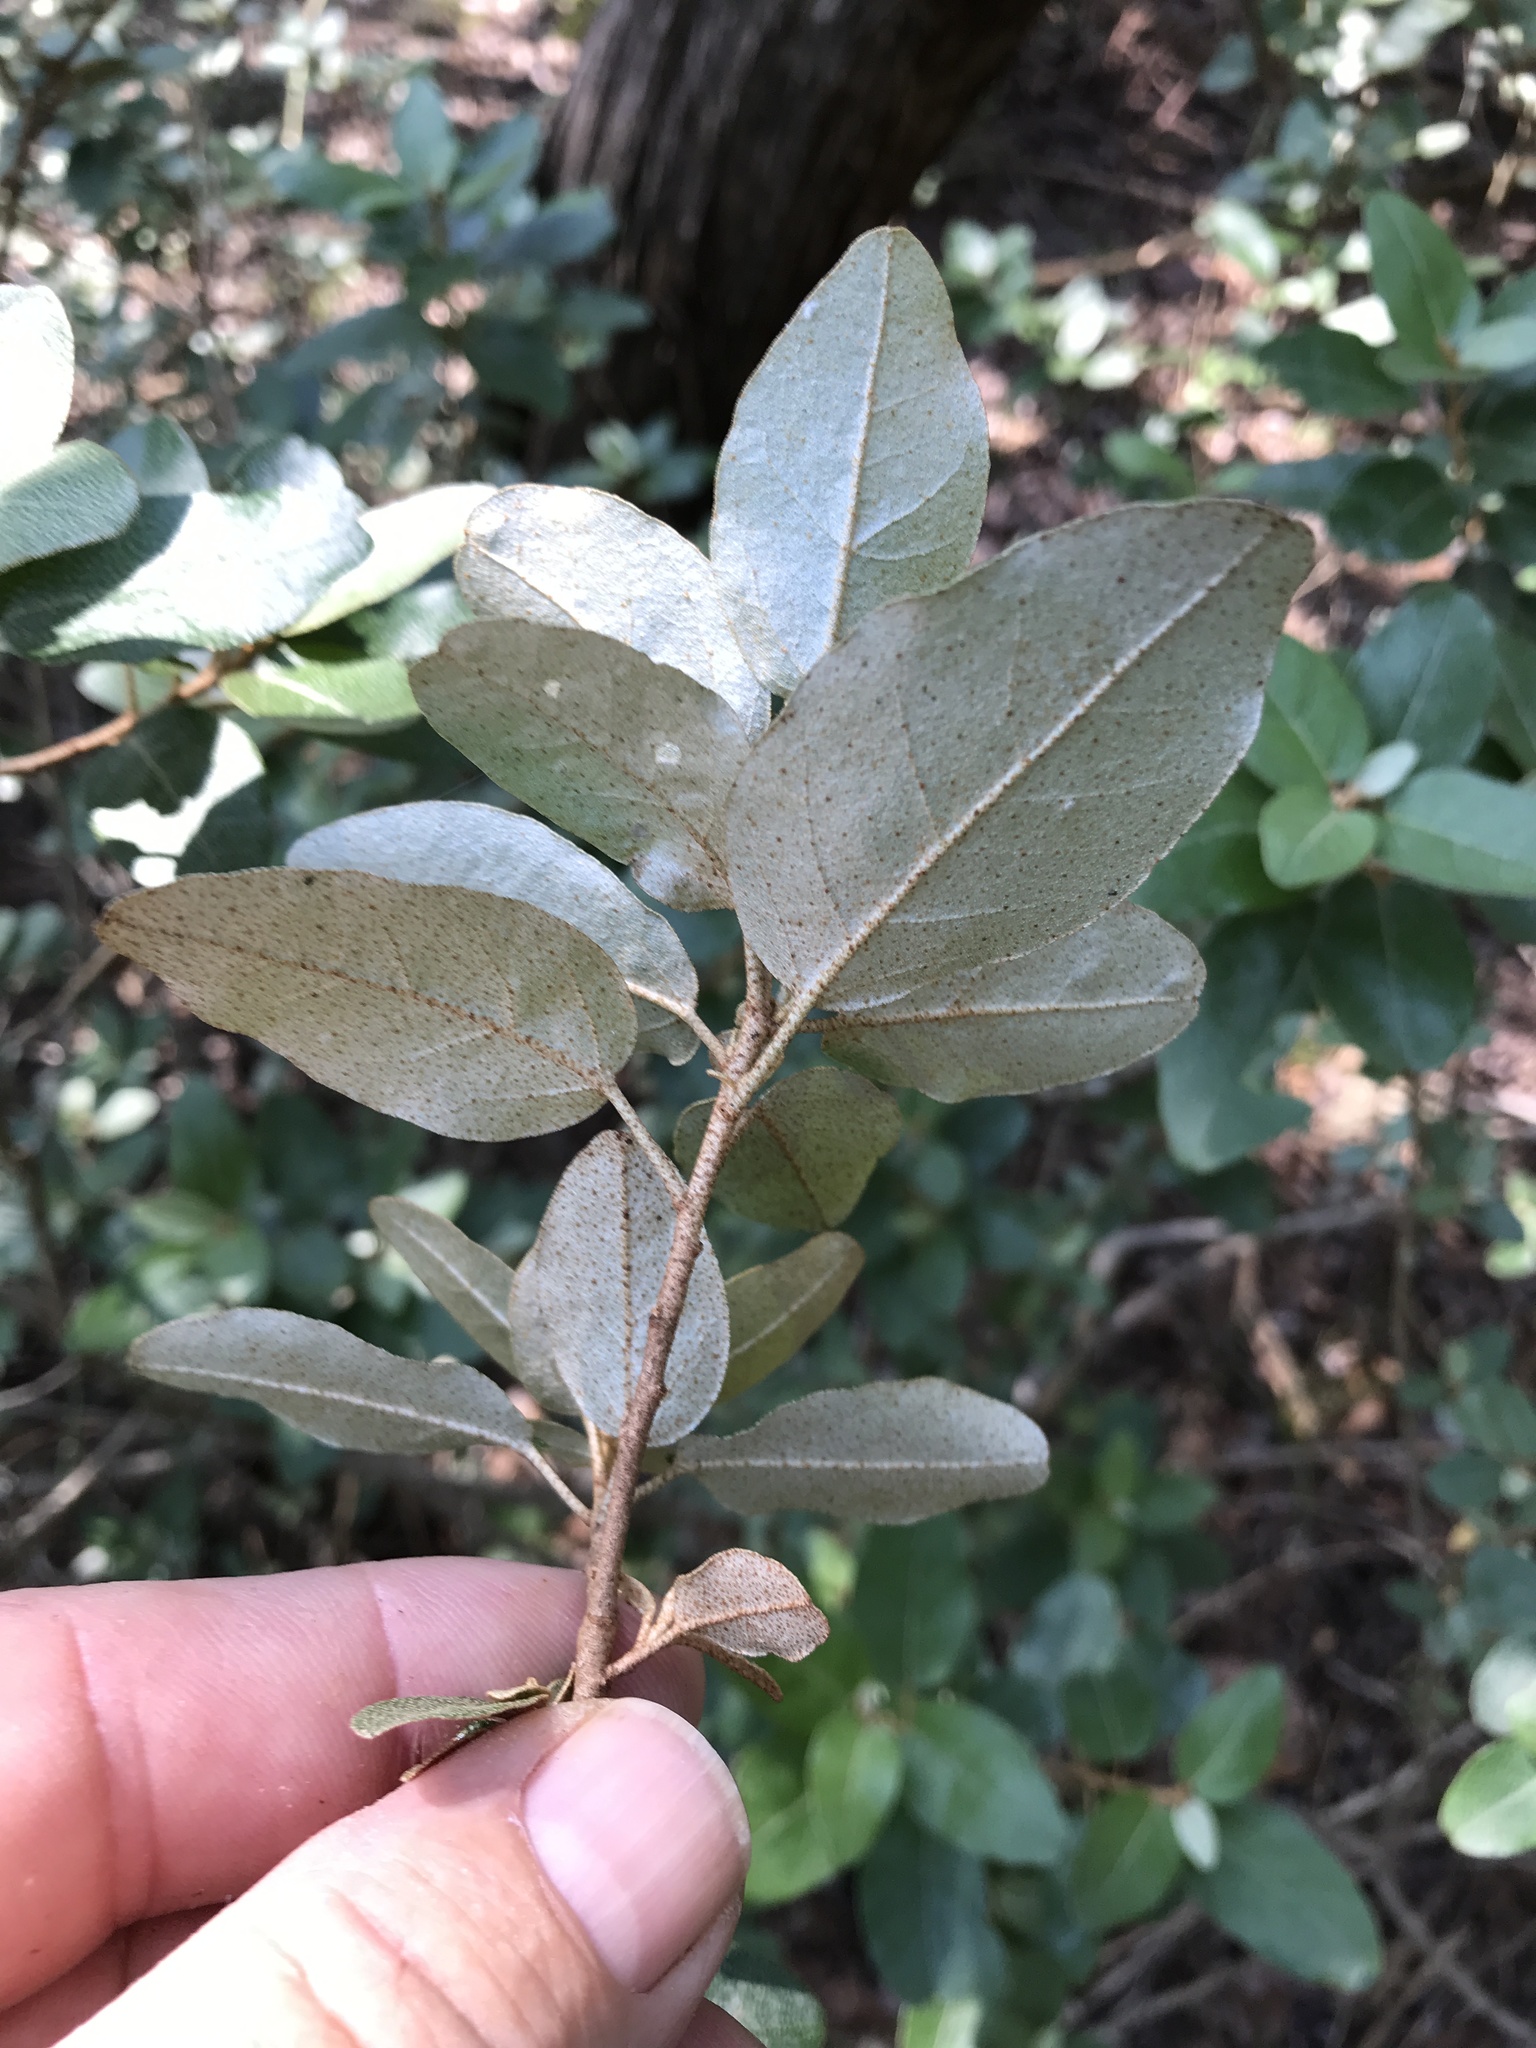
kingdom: Plantae
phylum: Tracheophyta
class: Magnoliopsida
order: Malpighiales
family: Euphorbiaceae
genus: Croton
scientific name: Croton alabamensis
